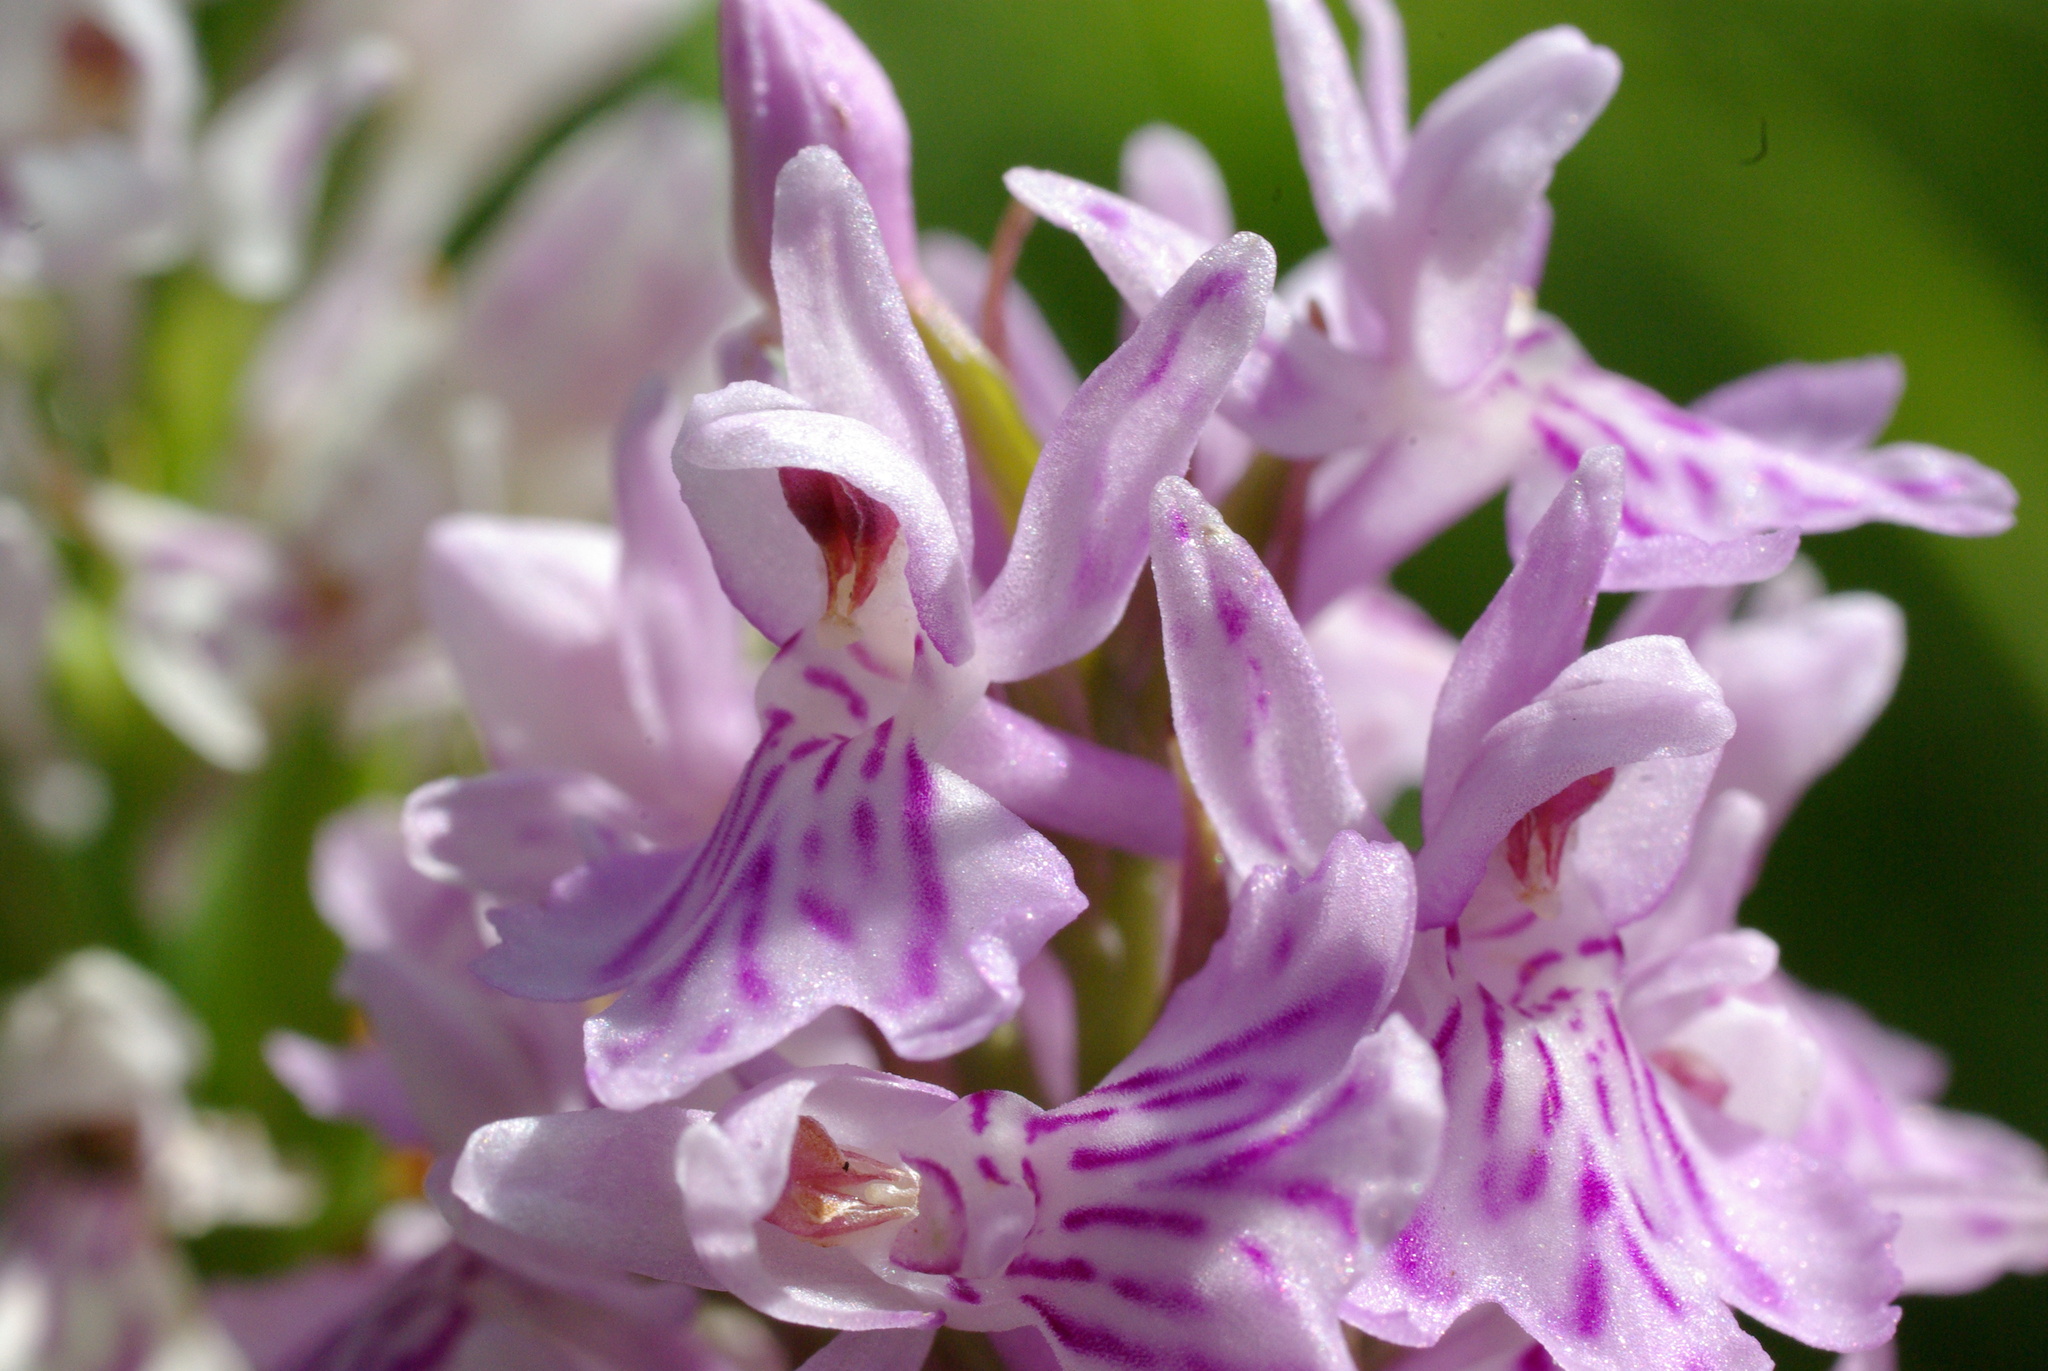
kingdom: Plantae
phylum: Tracheophyta
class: Liliopsida
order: Asparagales
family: Orchidaceae
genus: Dactylorhiza
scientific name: Dactylorhiza maculata
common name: Heath spotted-orchid
